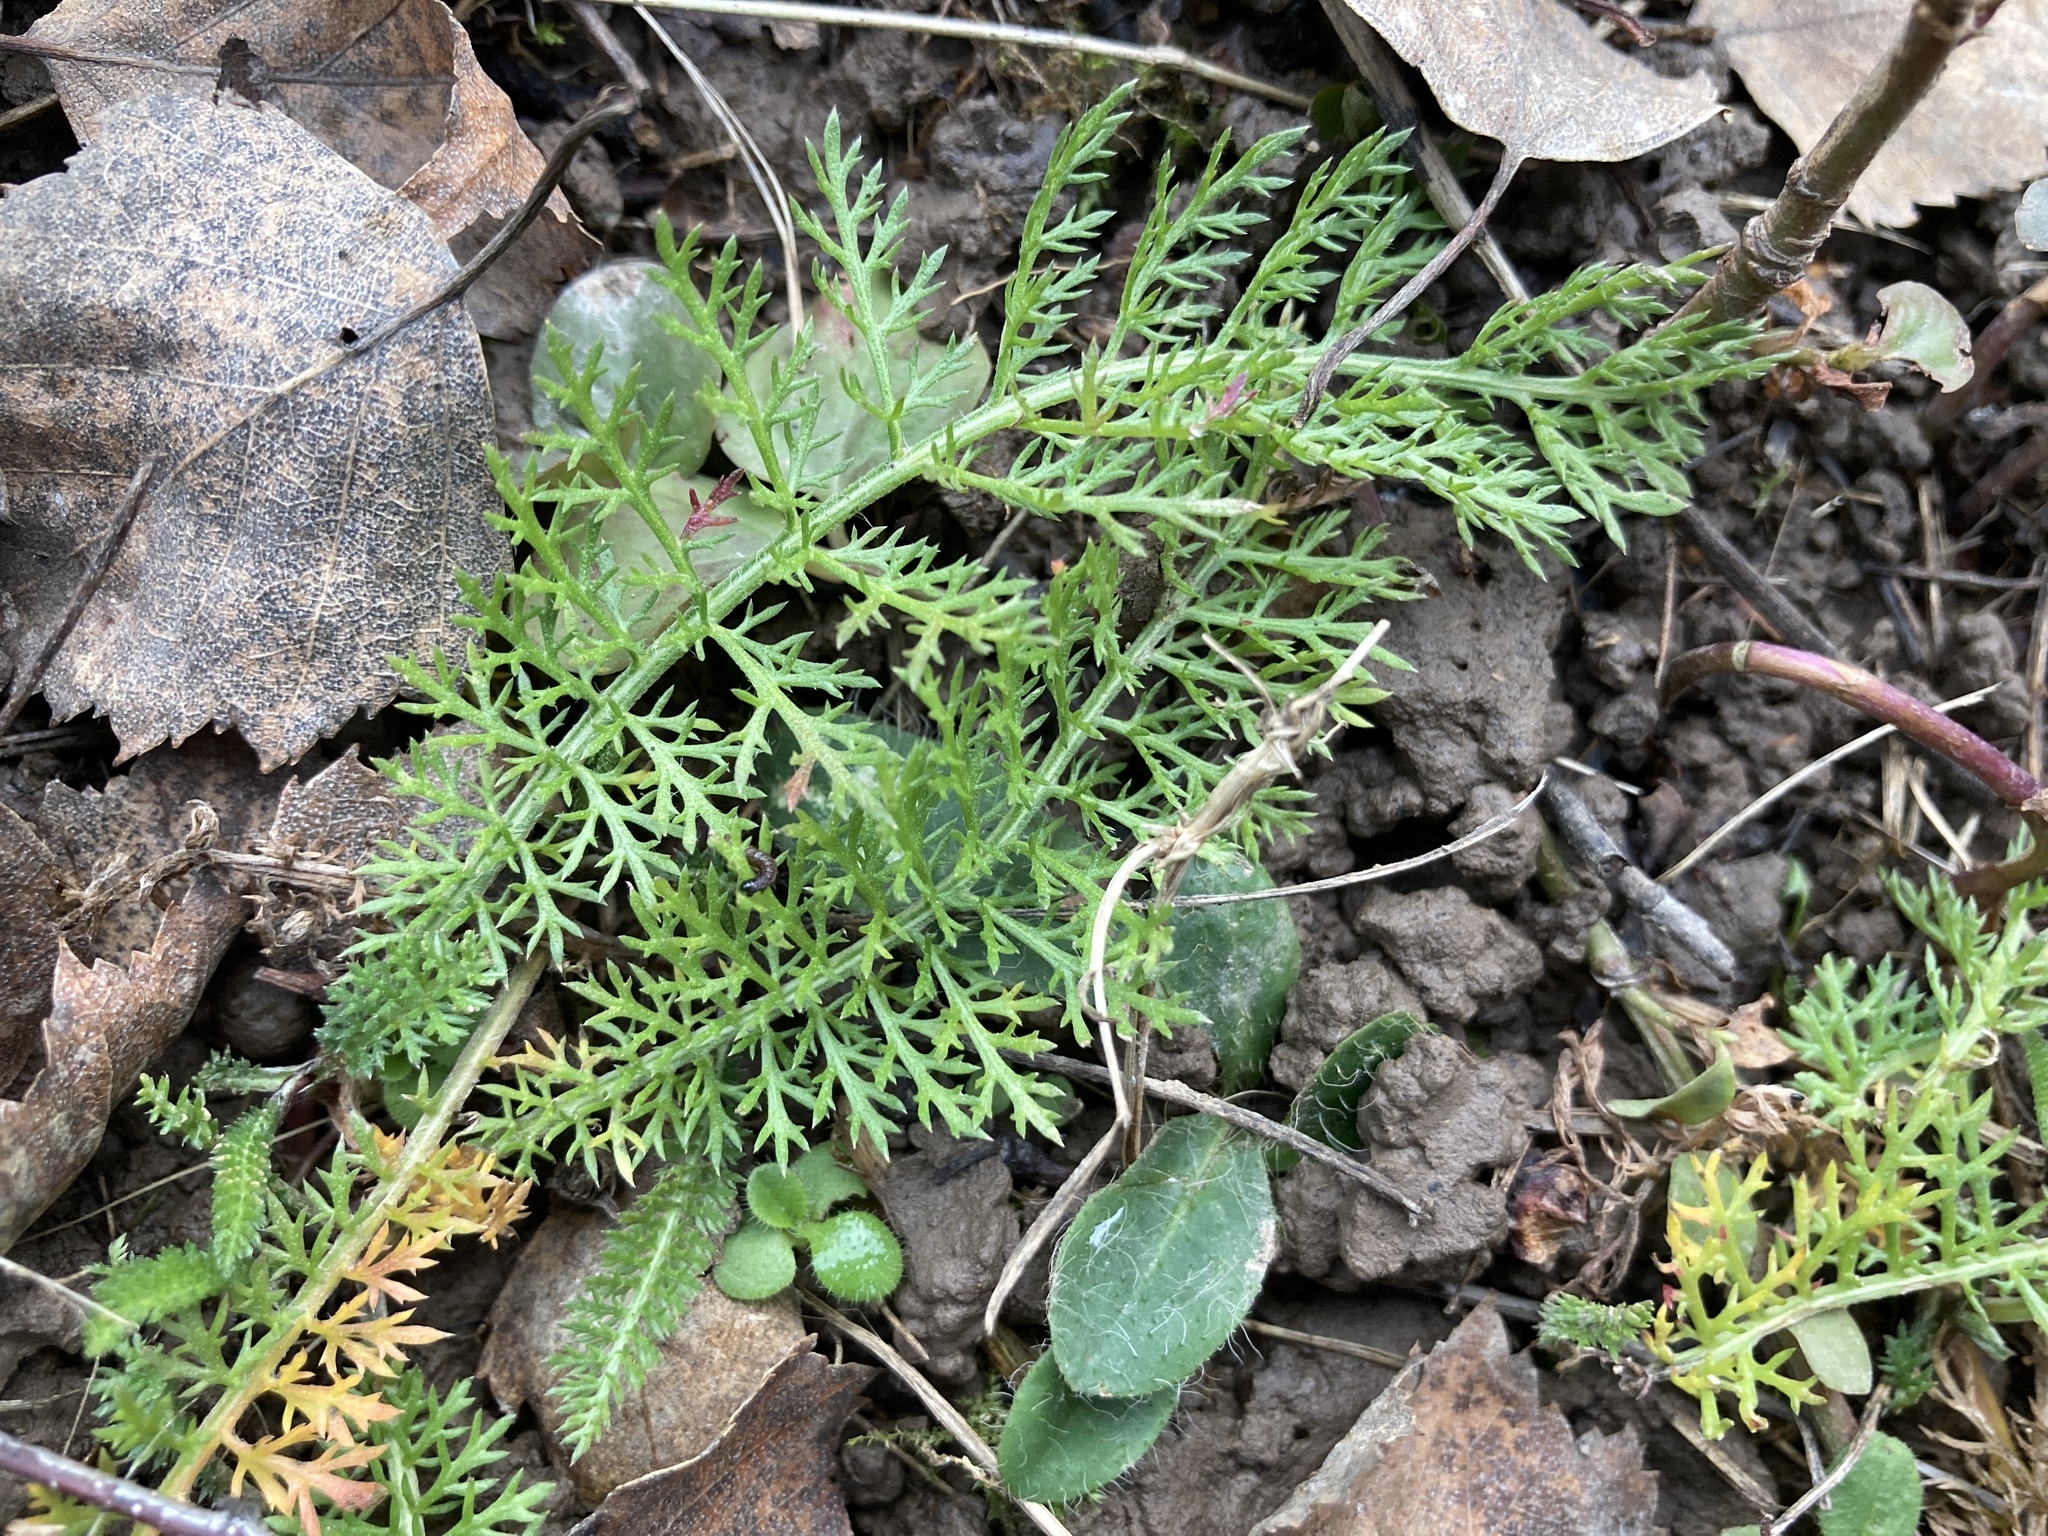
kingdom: Plantae
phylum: Tracheophyta
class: Magnoliopsida
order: Asterales
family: Asteraceae
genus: Achillea
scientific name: Achillea millefolium
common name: Yarrow
